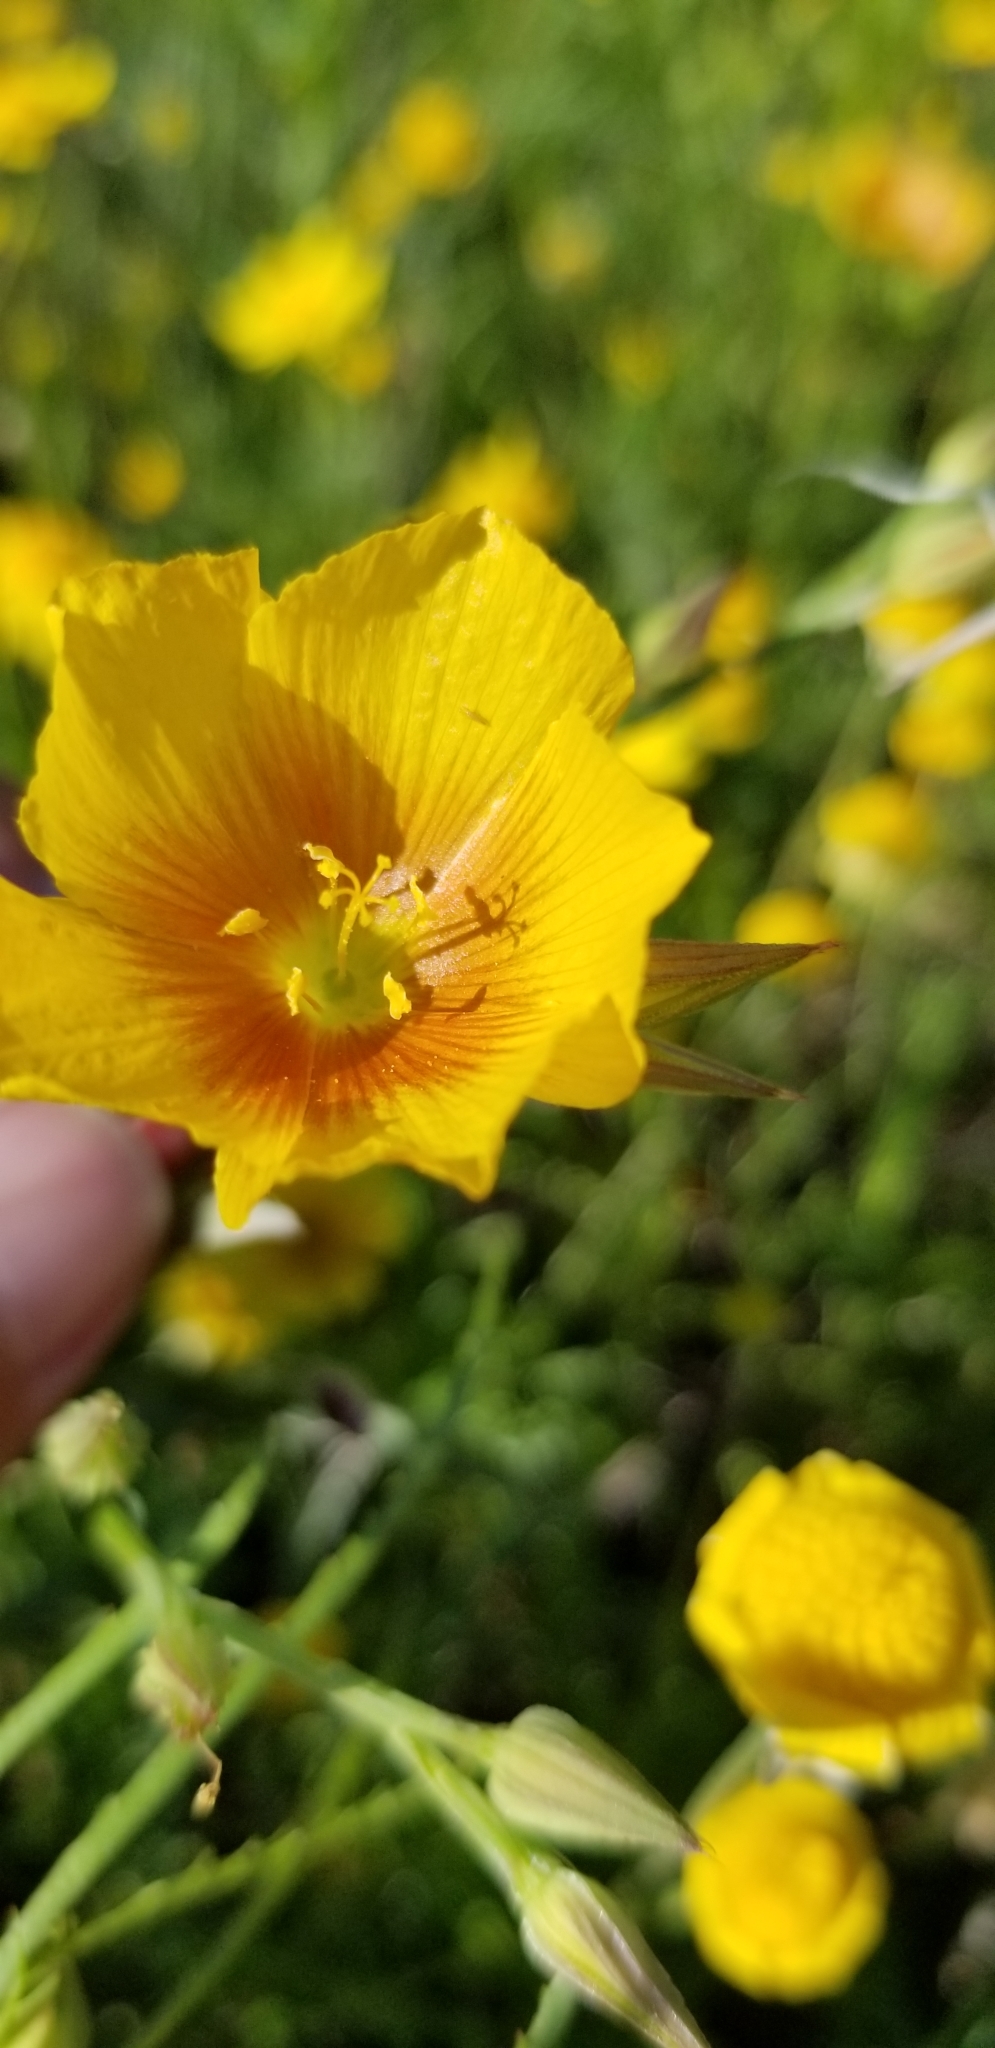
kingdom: Plantae
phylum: Tracheophyta
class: Magnoliopsida
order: Malpighiales
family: Linaceae
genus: Linum
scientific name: Linum rigidum
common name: Stiff-stem flax
